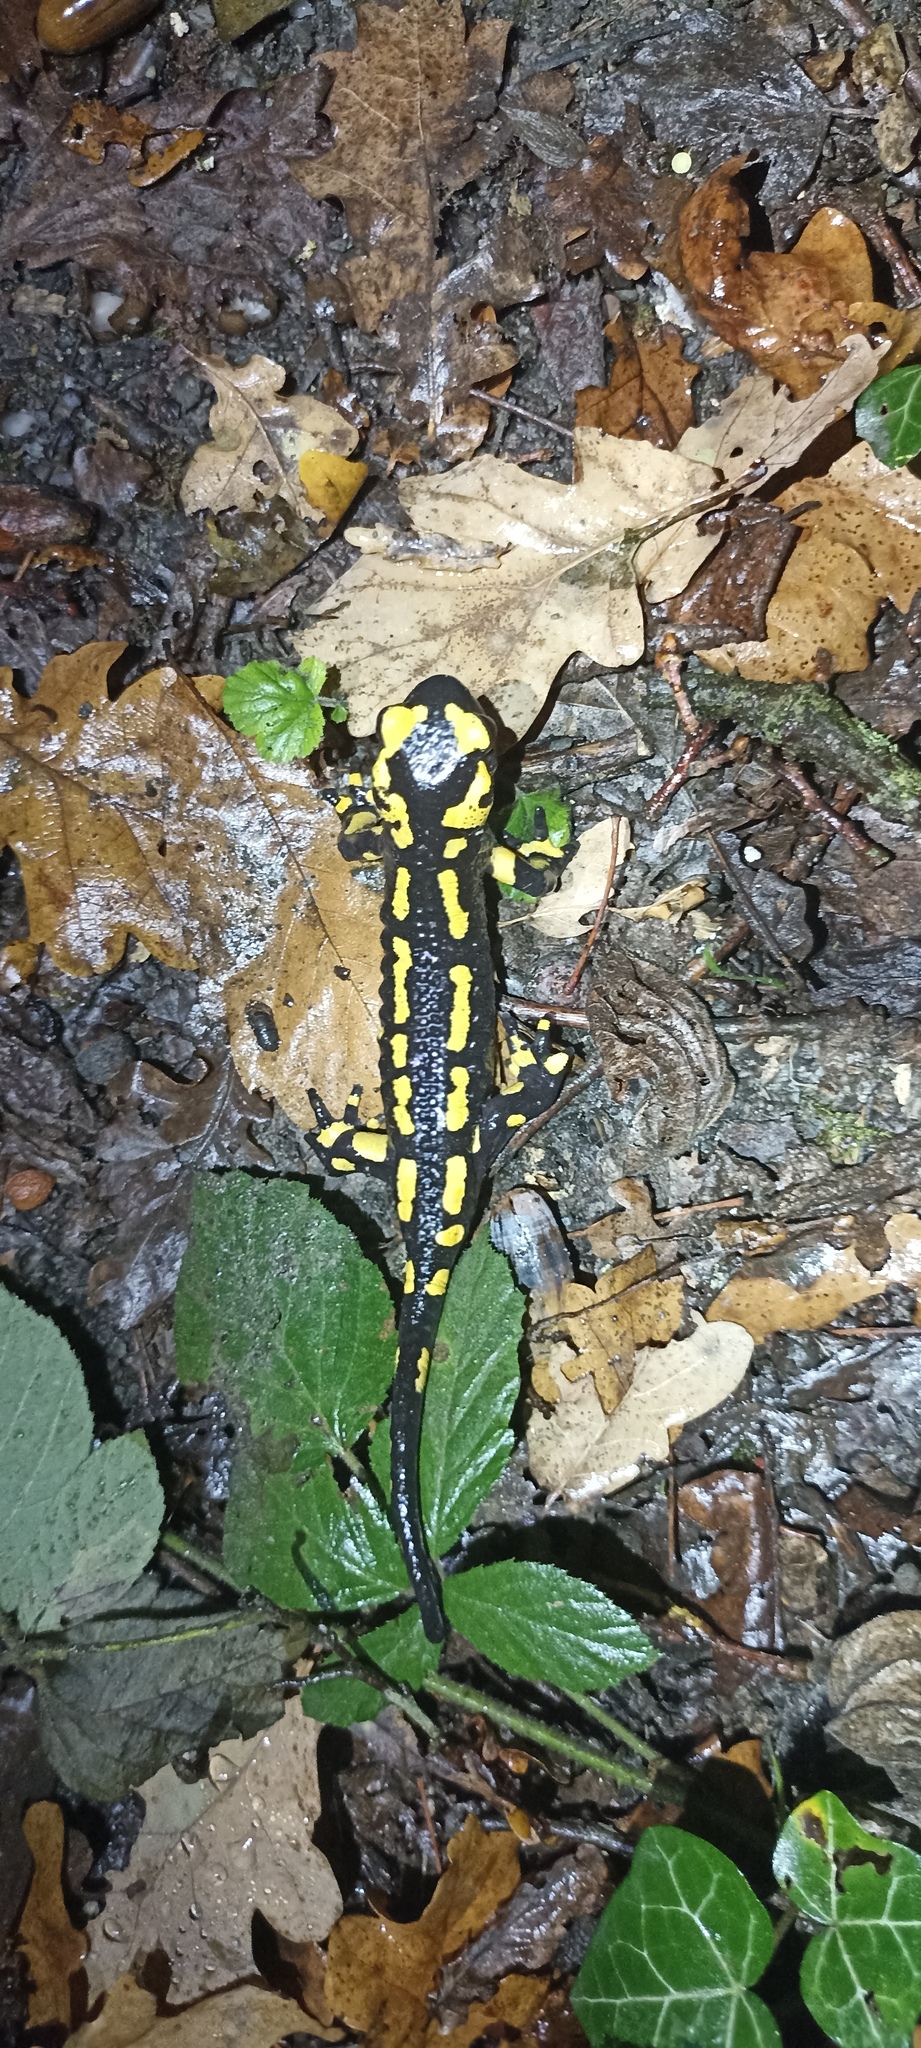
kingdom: Animalia
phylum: Chordata
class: Amphibia
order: Caudata
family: Salamandridae
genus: Salamandra
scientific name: Salamandra salamandra
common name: Fire salamander
